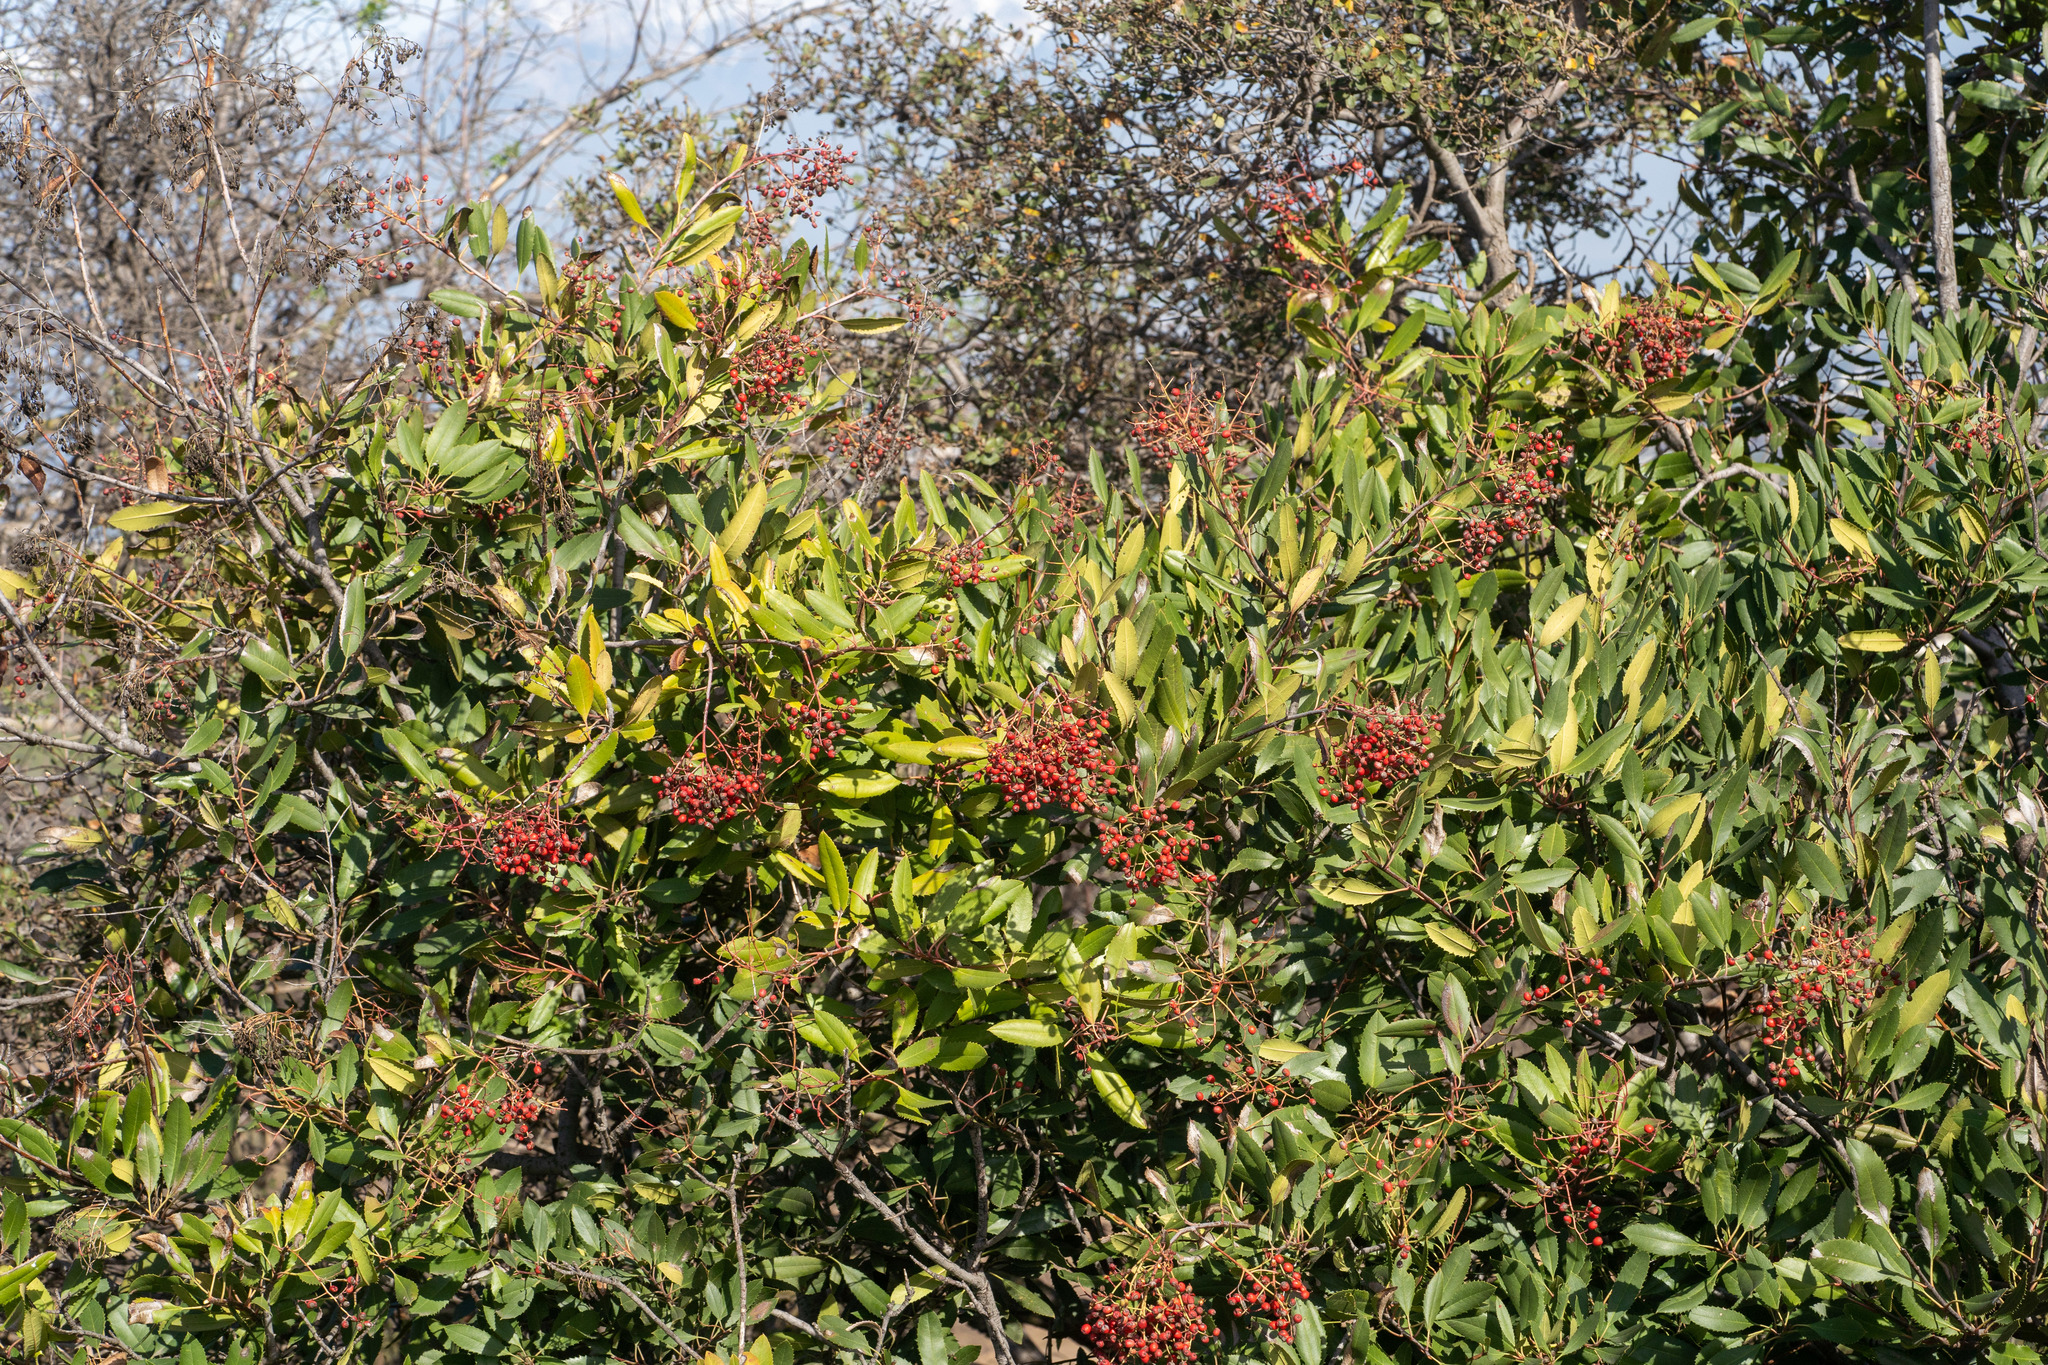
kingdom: Plantae
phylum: Tracheophyta
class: Magnoliopsida
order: Rosales
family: Rosaceae
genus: Heteromeles
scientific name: Heteromeles arbutifolia
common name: California-holly
